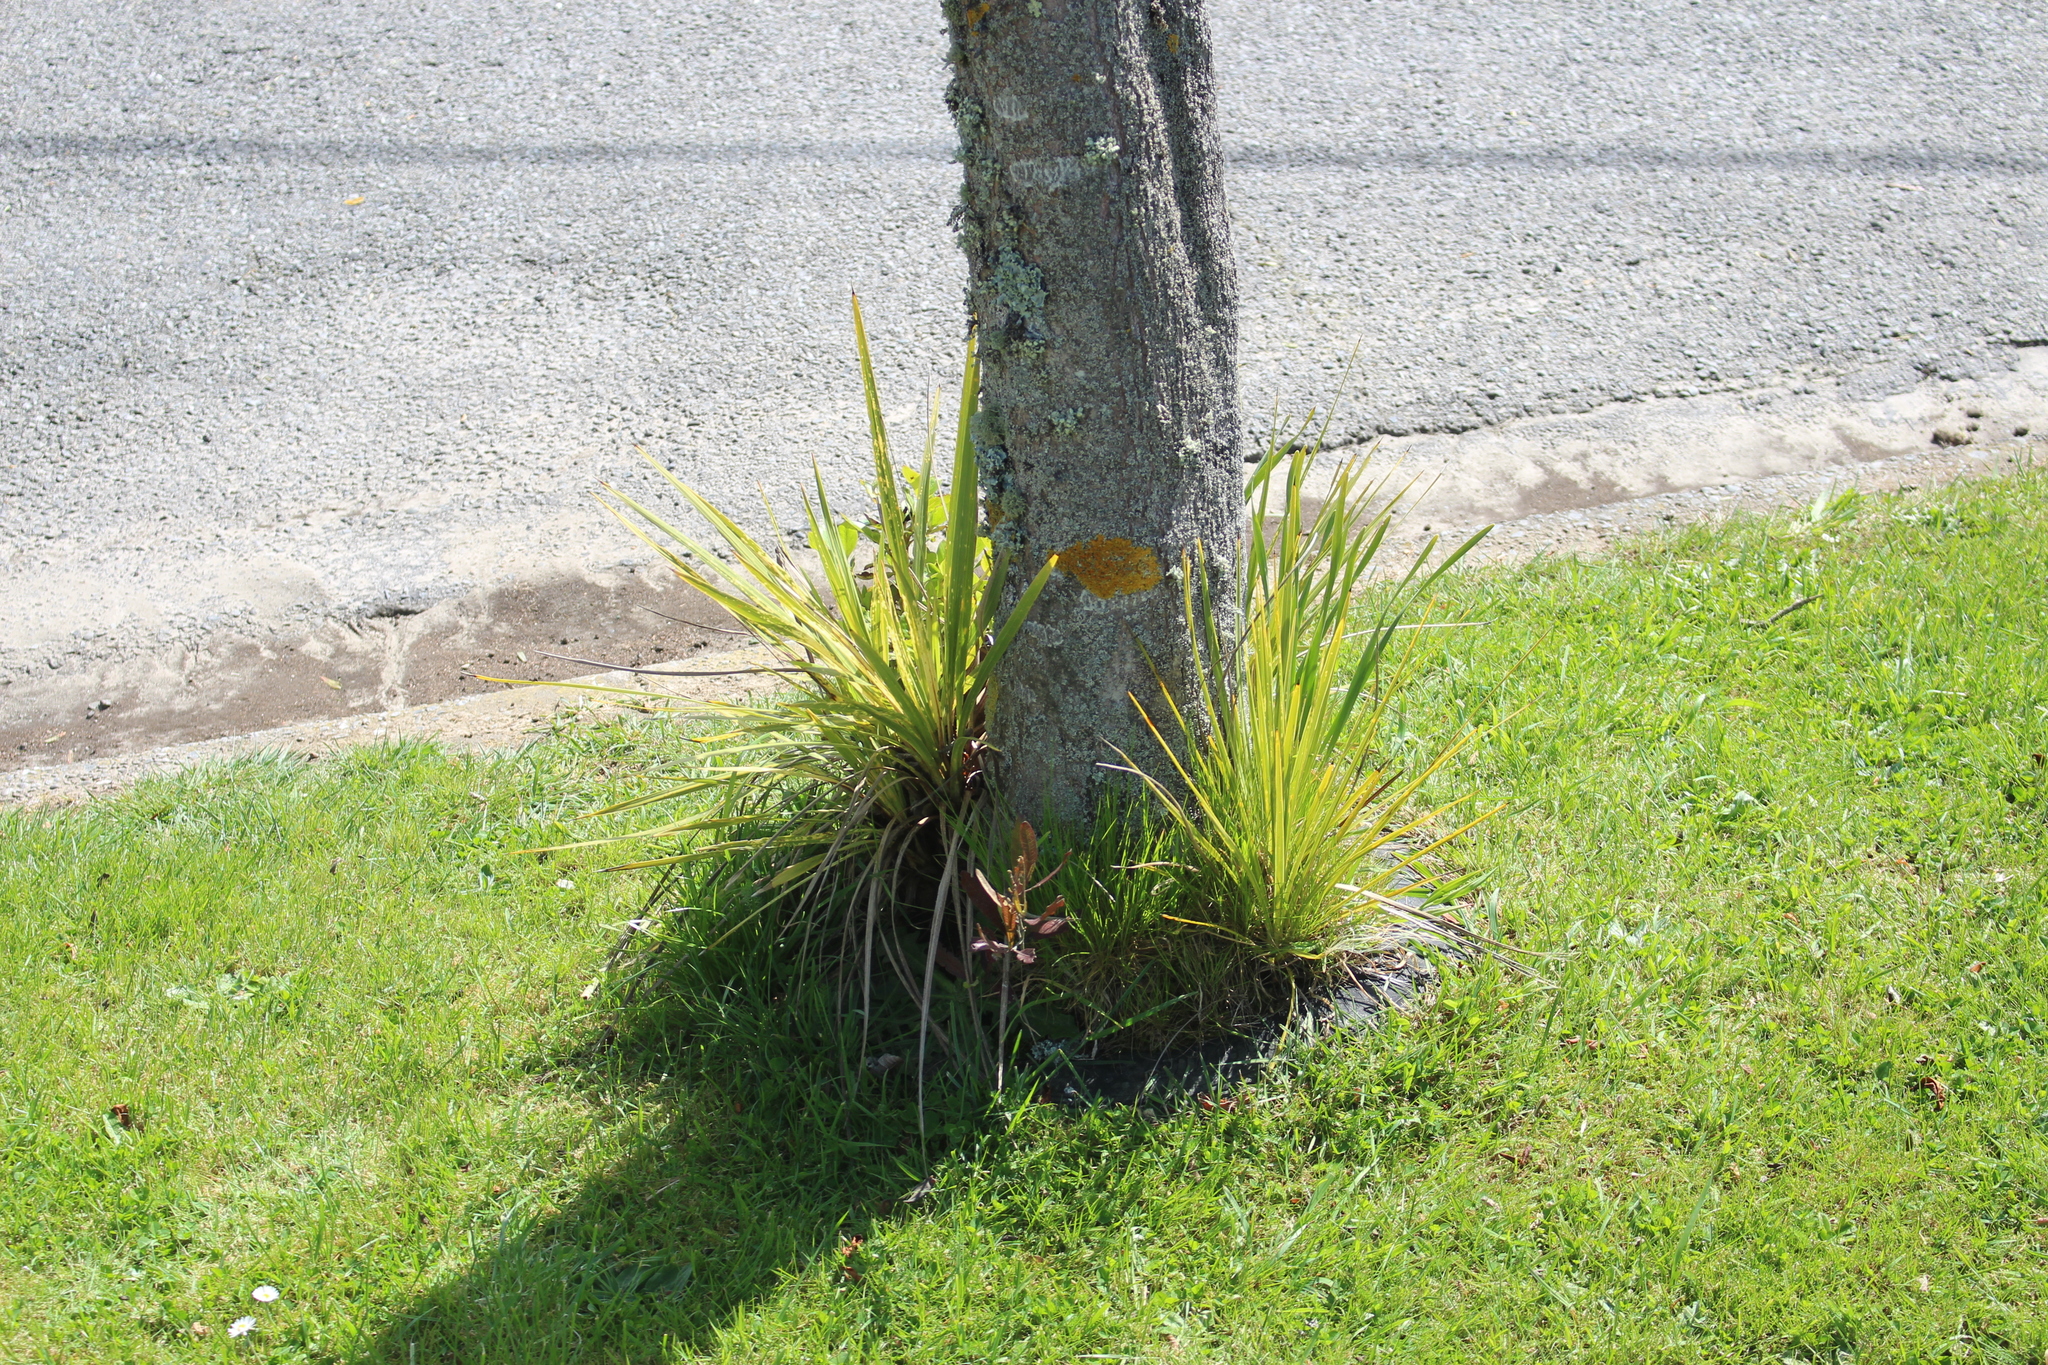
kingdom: Plantae
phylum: Tracheophyta
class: Liliopsida
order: Asparagales
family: Asparagaceae
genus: Cordyline
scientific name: Cordyline australis
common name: Cabbage-palm
